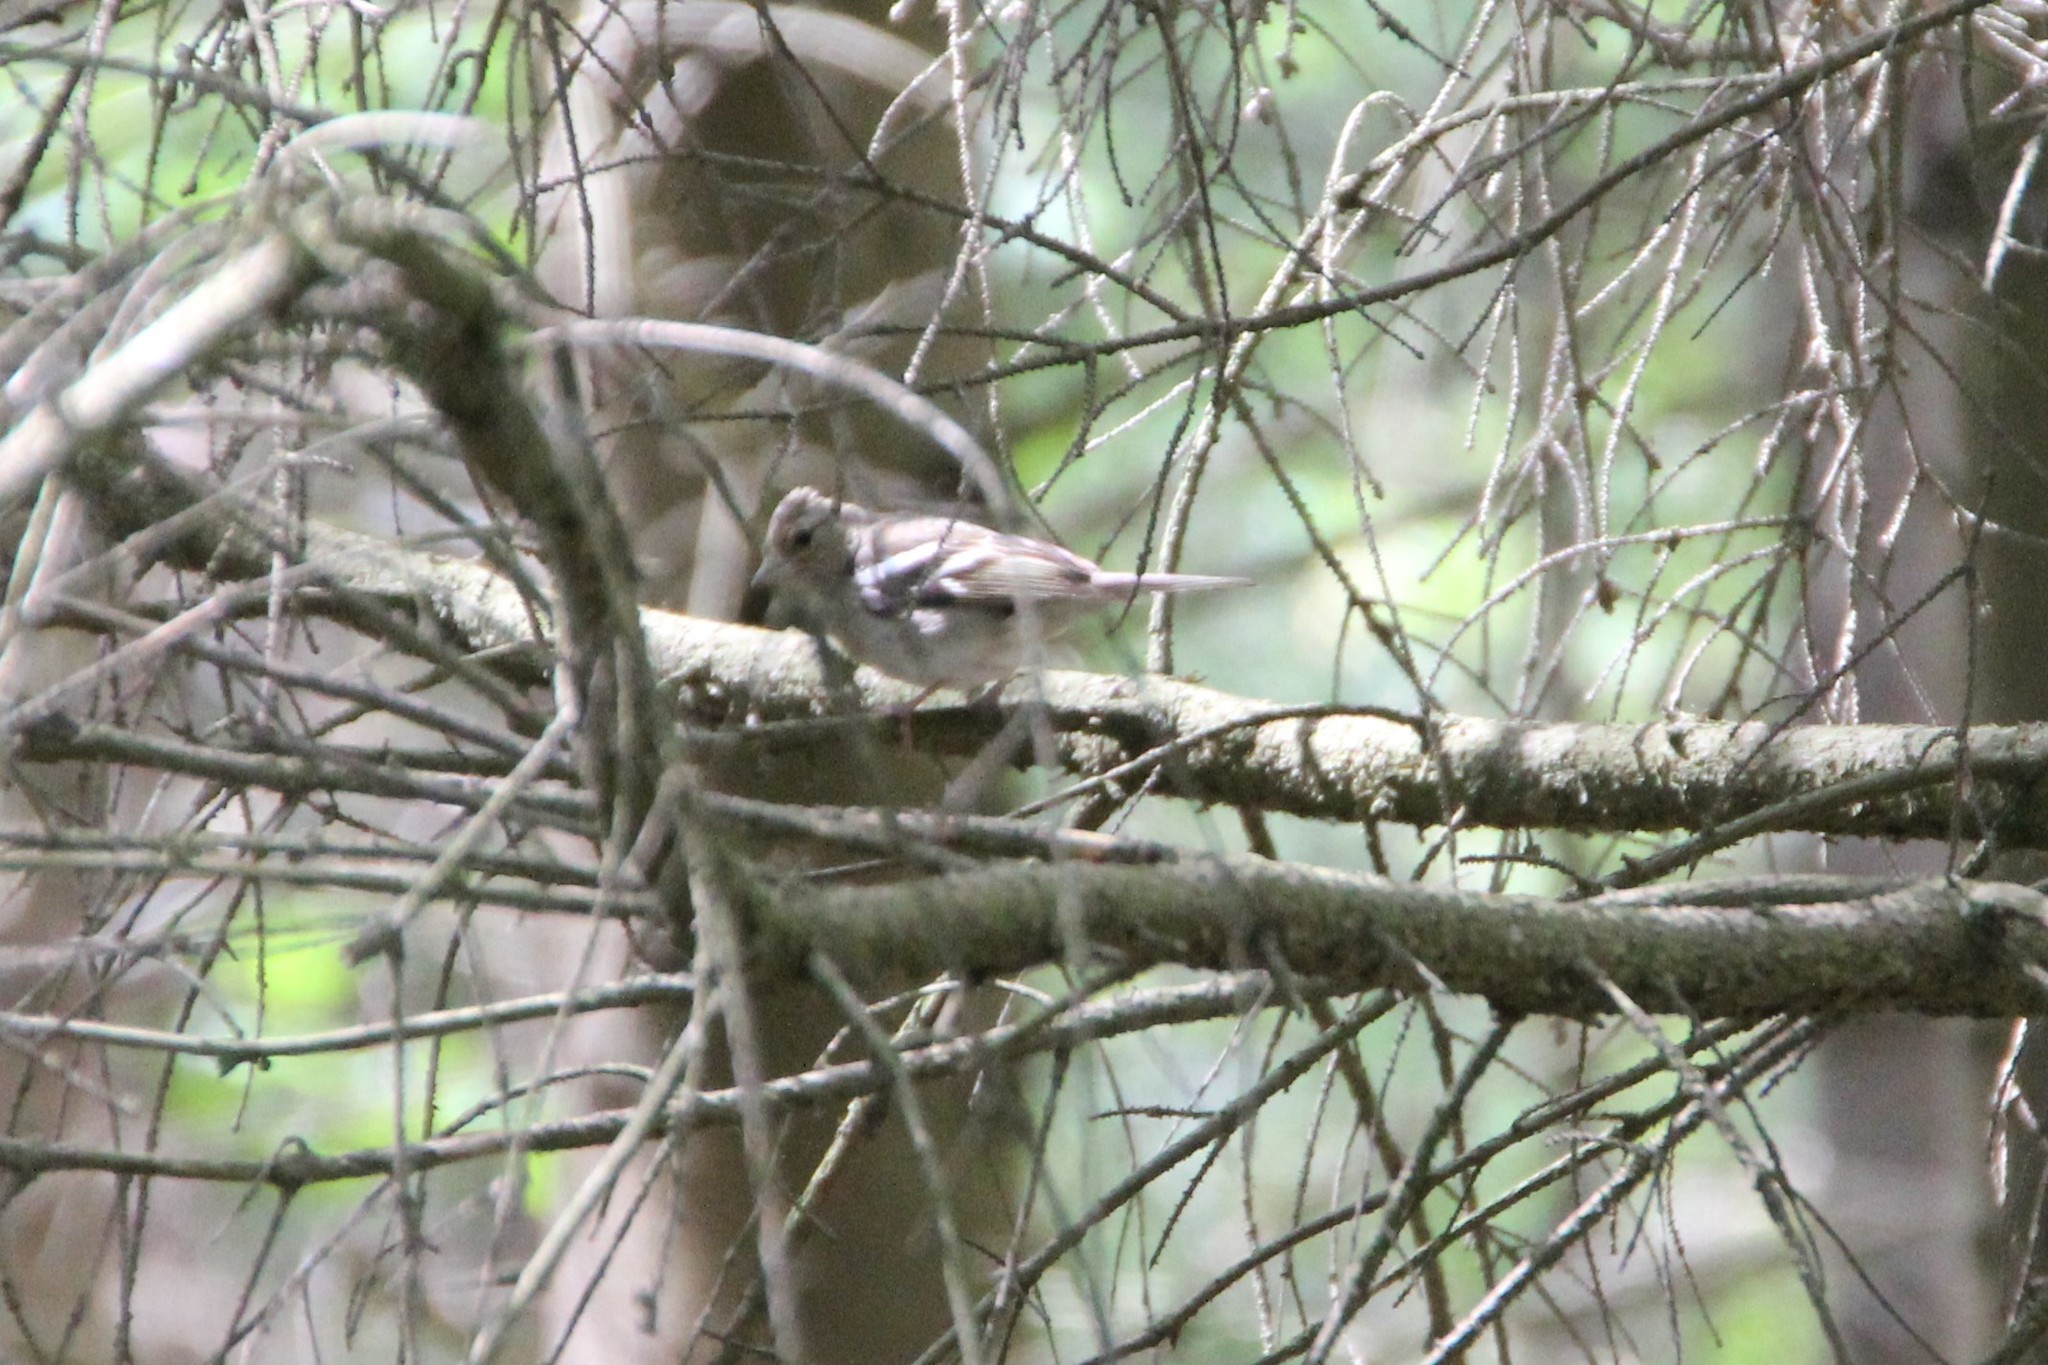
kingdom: Animalia
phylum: Chordata
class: Aves
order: Passeriformes
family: Fringillidae
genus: Fringilla
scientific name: Fringilla coelebs
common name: Common chaffinch
